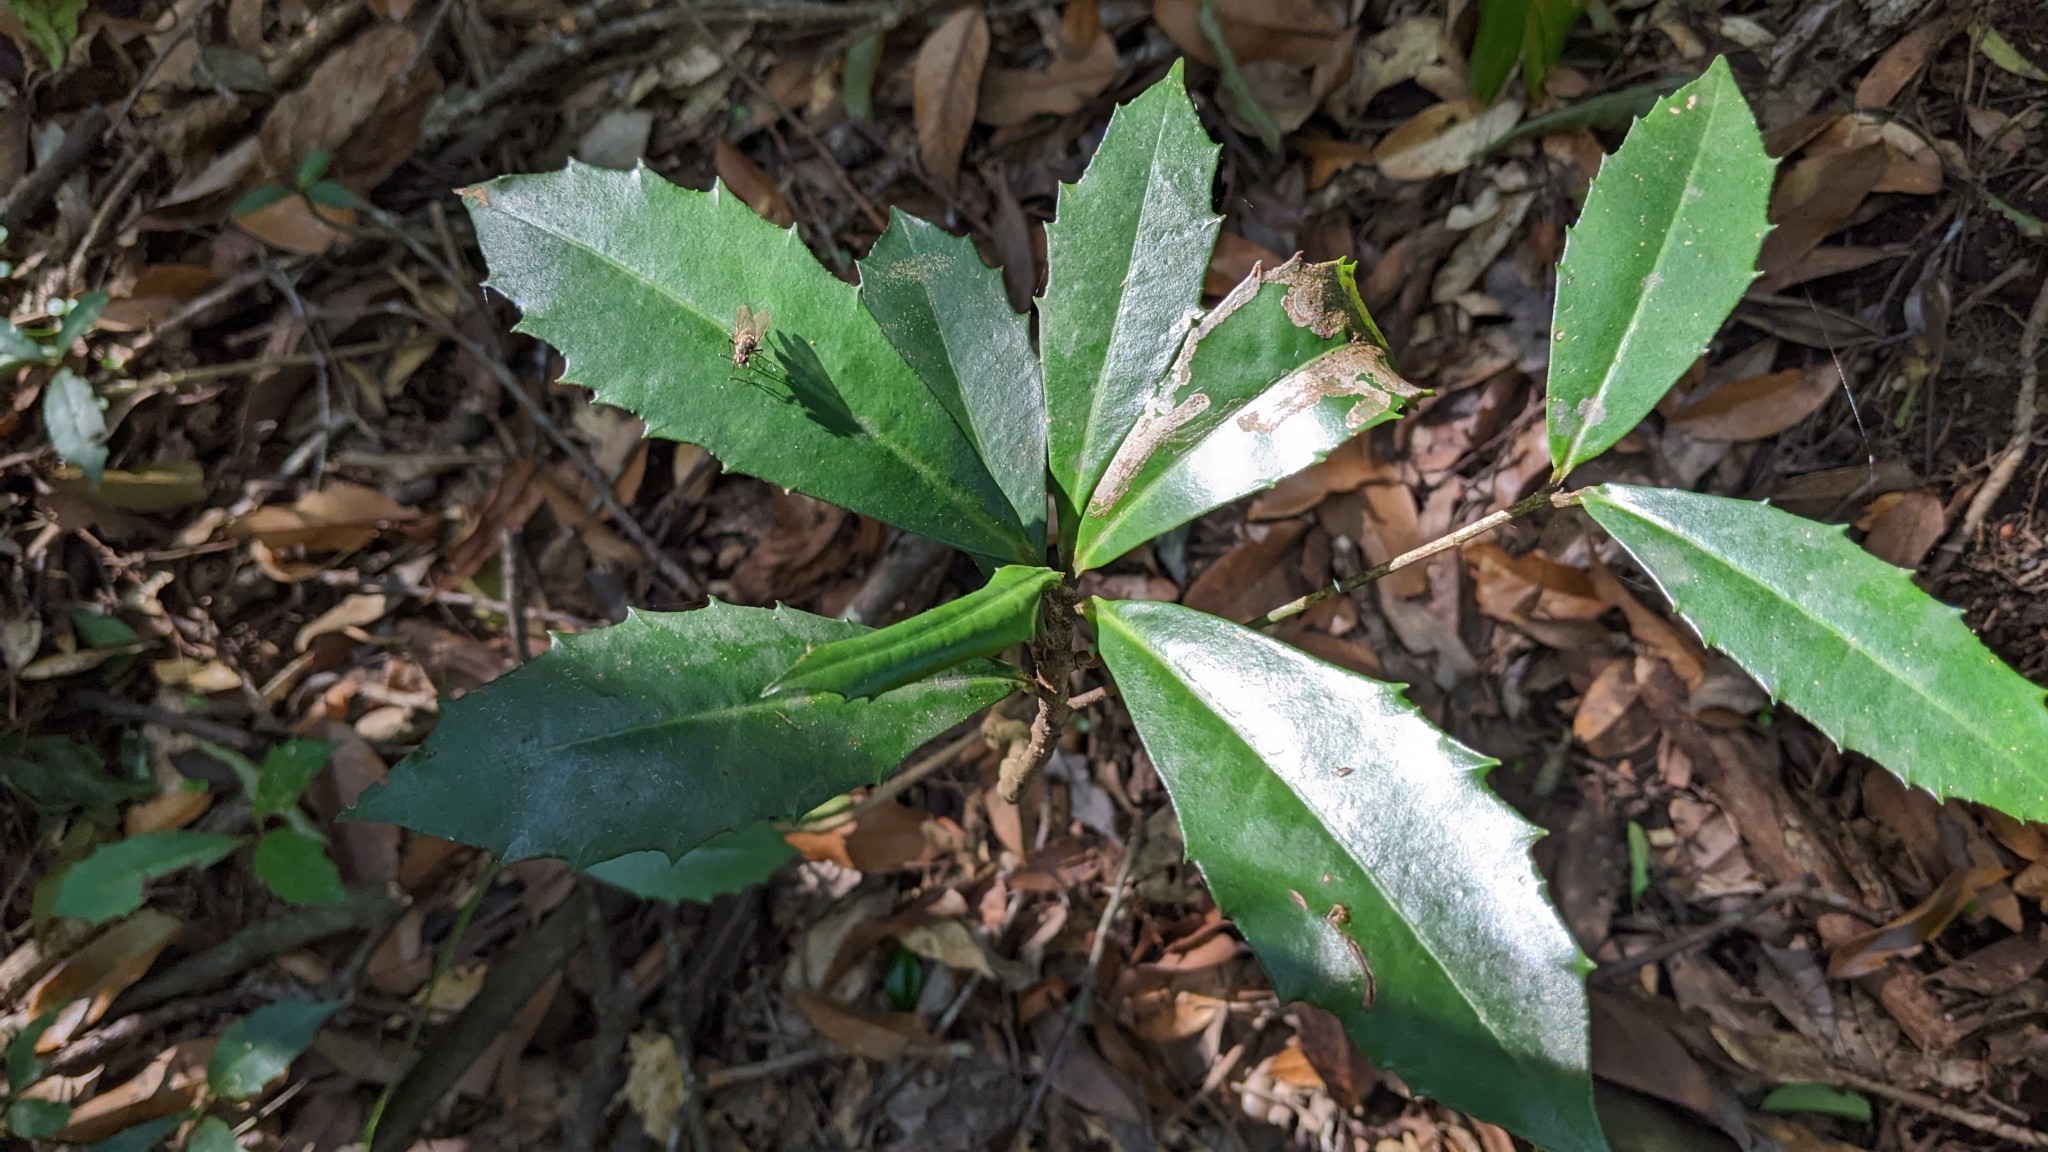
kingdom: Plantae
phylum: Tracheophyta
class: Magnoliopsida
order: Ericales
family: Primulaceae
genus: Ardisia
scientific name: Ardisia cornudentata
